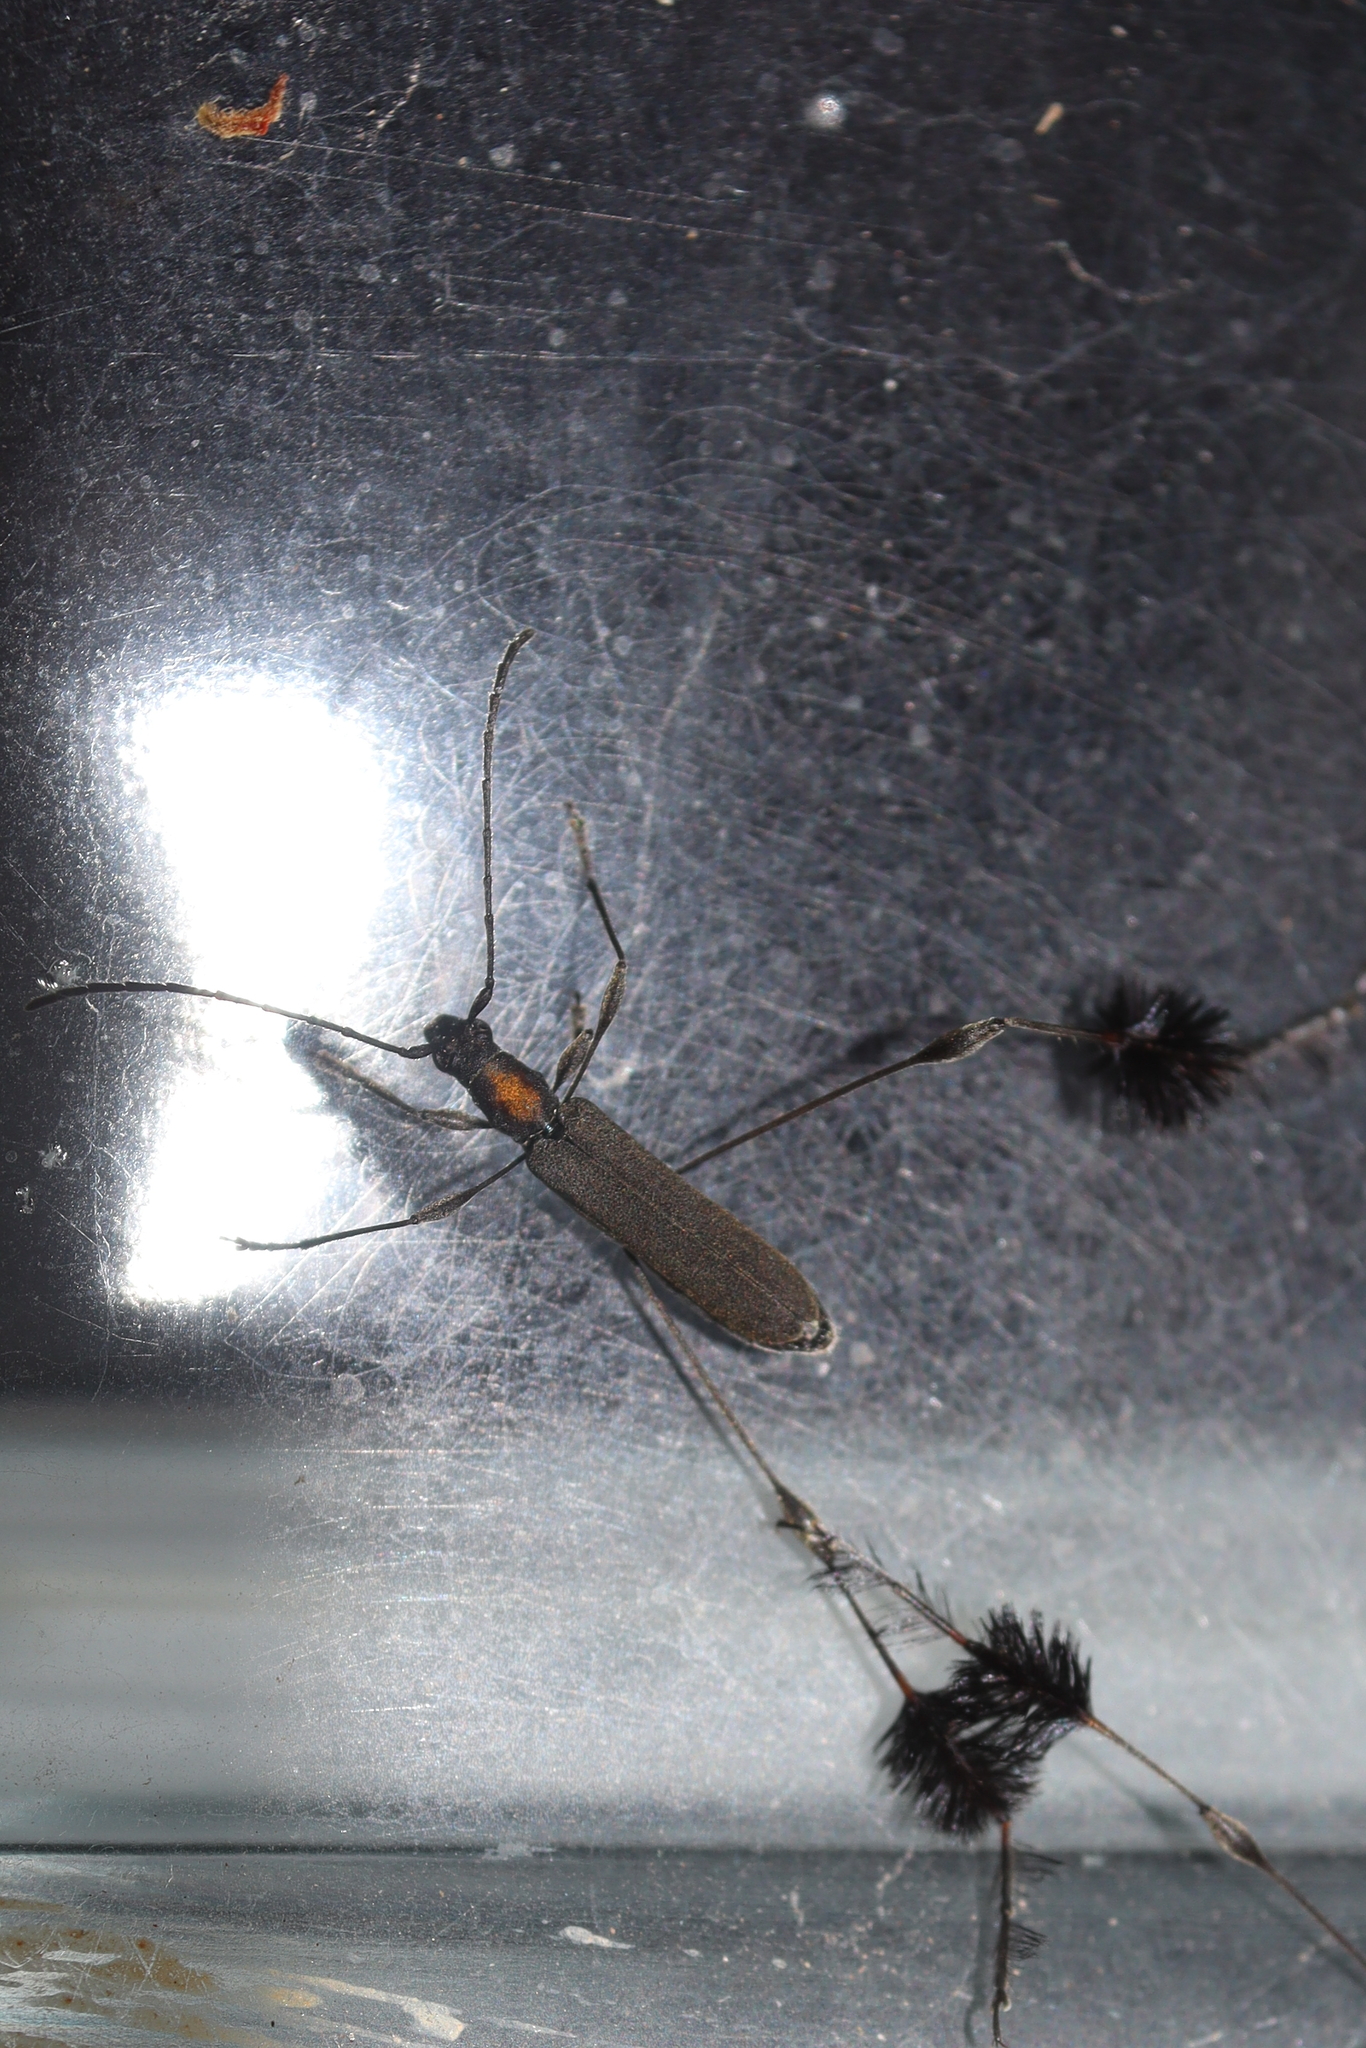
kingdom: Animalia
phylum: Arthropoda
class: Insecta
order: Coleoptera
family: Cerambycidae
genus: Coremia
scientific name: Coremia plumipes
